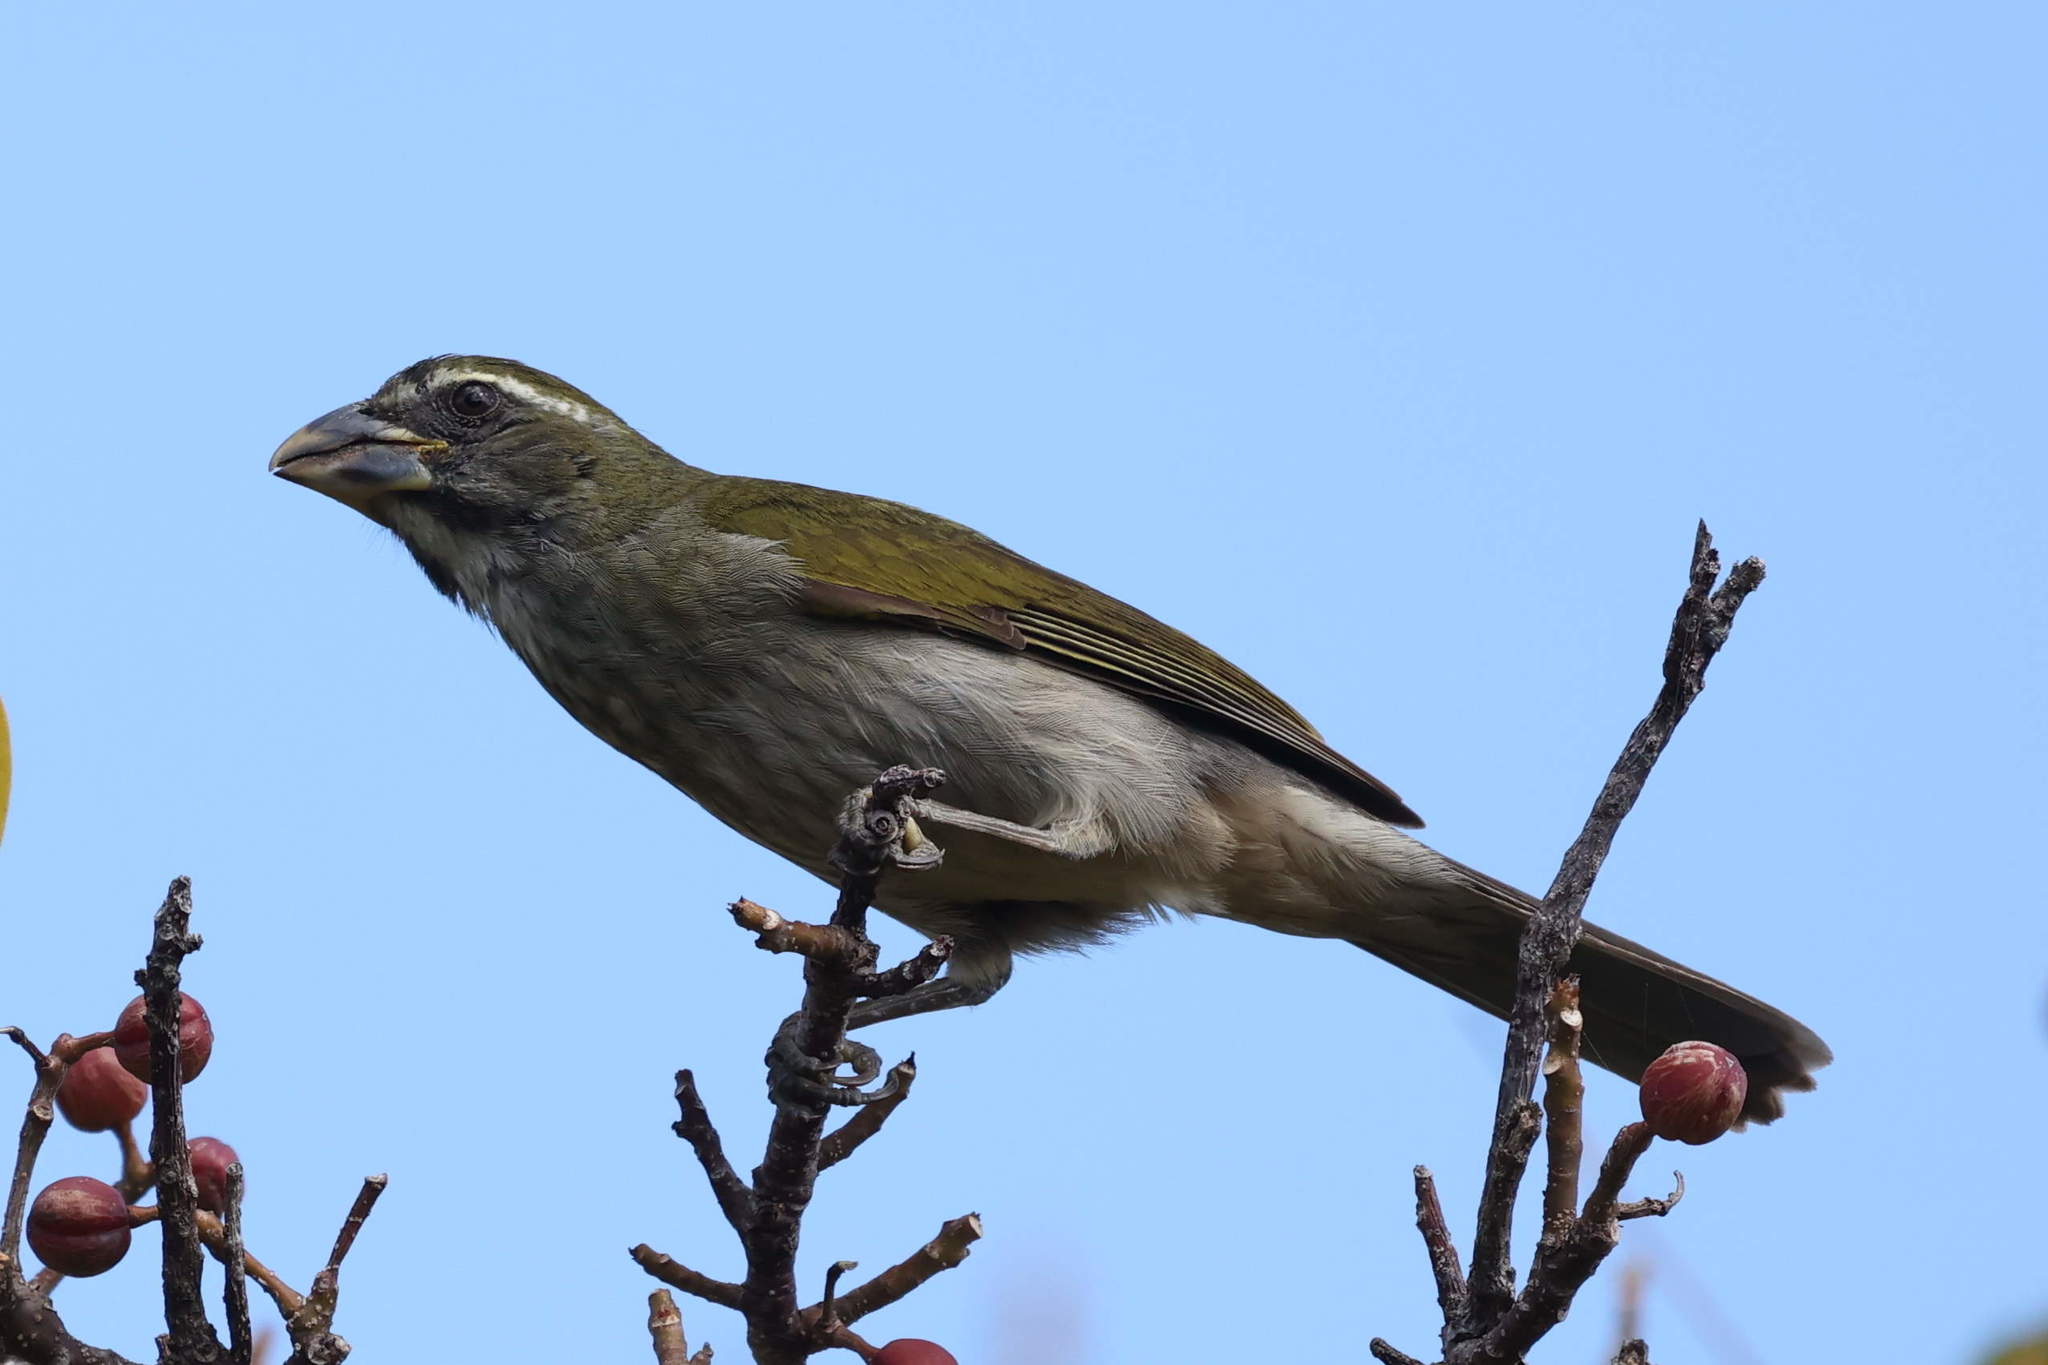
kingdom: Animalia
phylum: Chordata
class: Aves
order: Passeriformes
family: Thraupidae
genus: Saltator
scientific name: Saltator albicollis
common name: Lesser antillean saltator
